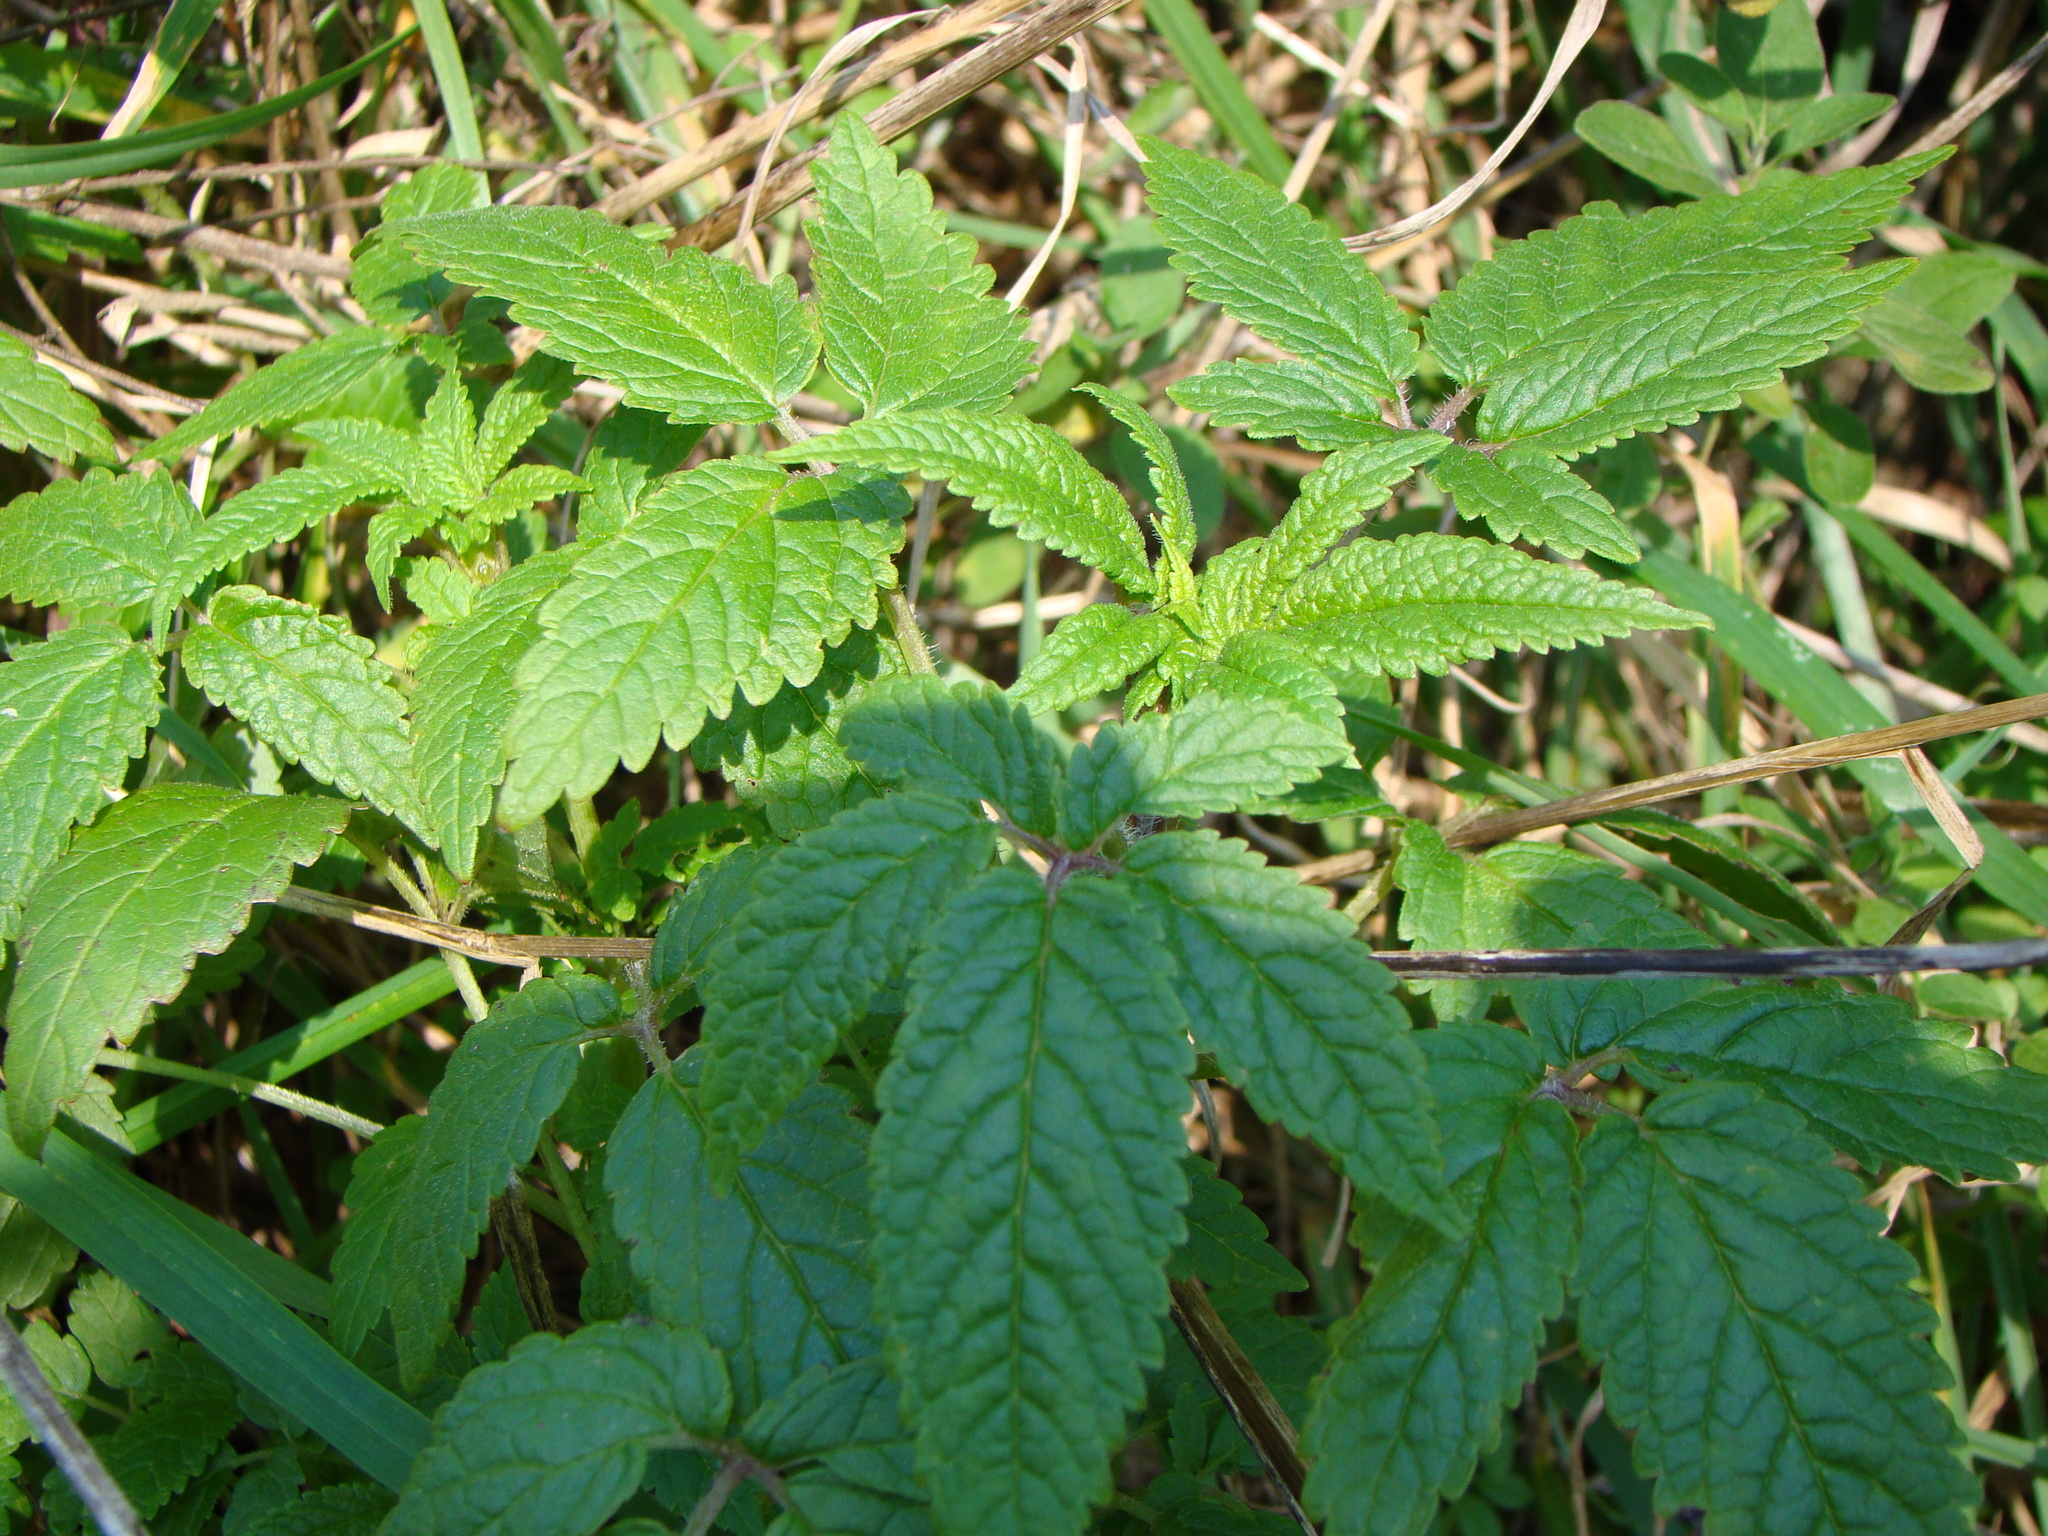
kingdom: Plantae
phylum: Tracheophyta
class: Magnoliopsida
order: Lamiales
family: Lamiaceae
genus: Cedronella
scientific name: Cedronella canariensis
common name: Canary islands balm
